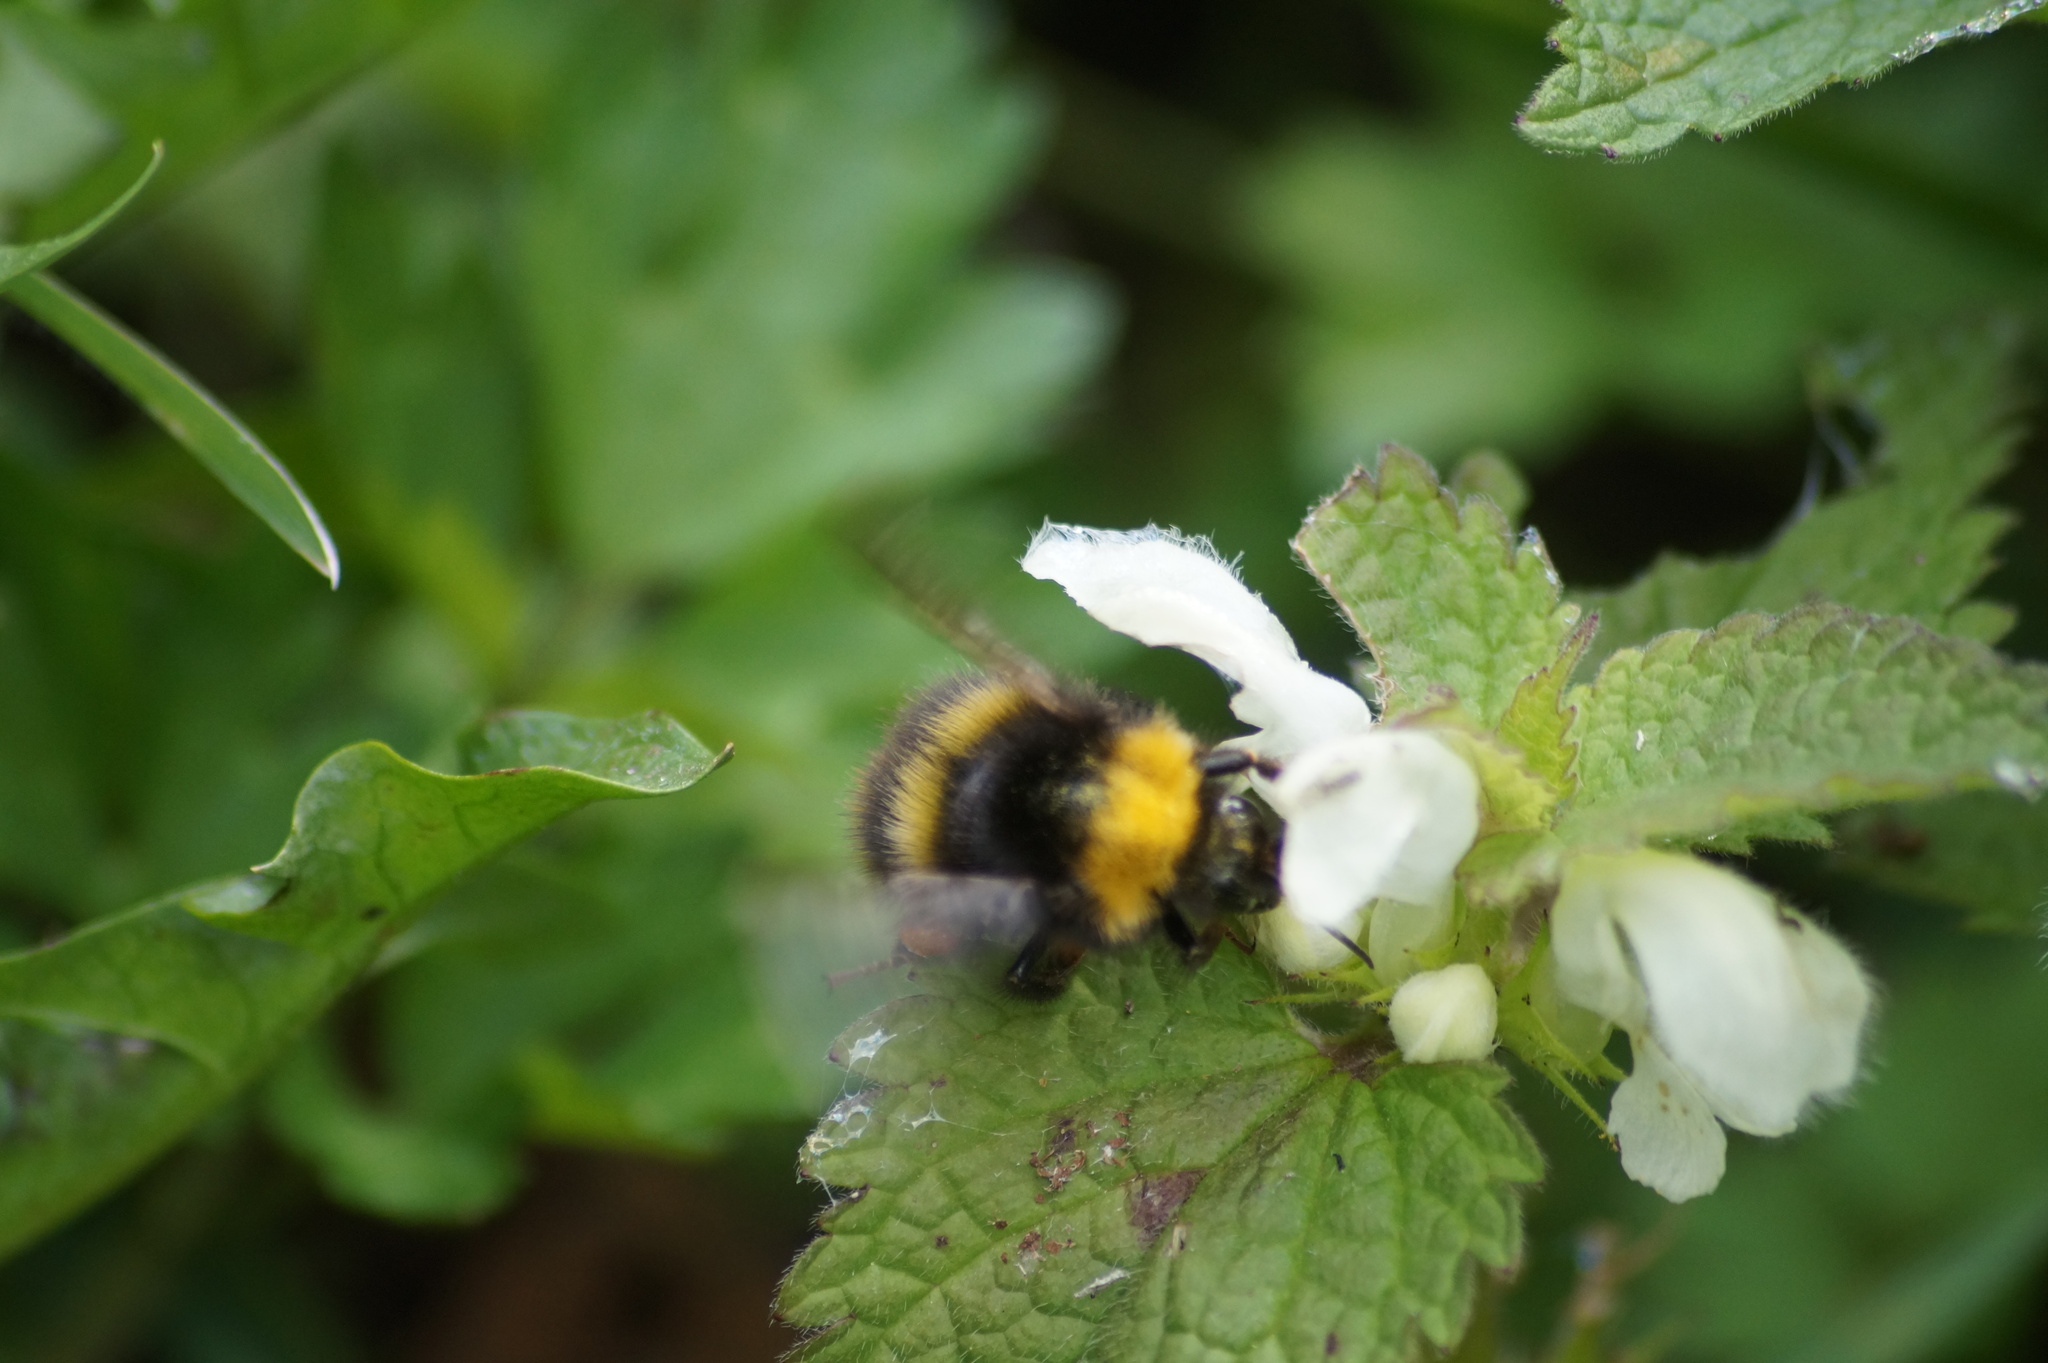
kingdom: Animalia
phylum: Arthropoda
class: Insecta
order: Hymenoptera
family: Apidae
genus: Bombus
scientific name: Bombus pratorum
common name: Early humble-bee
